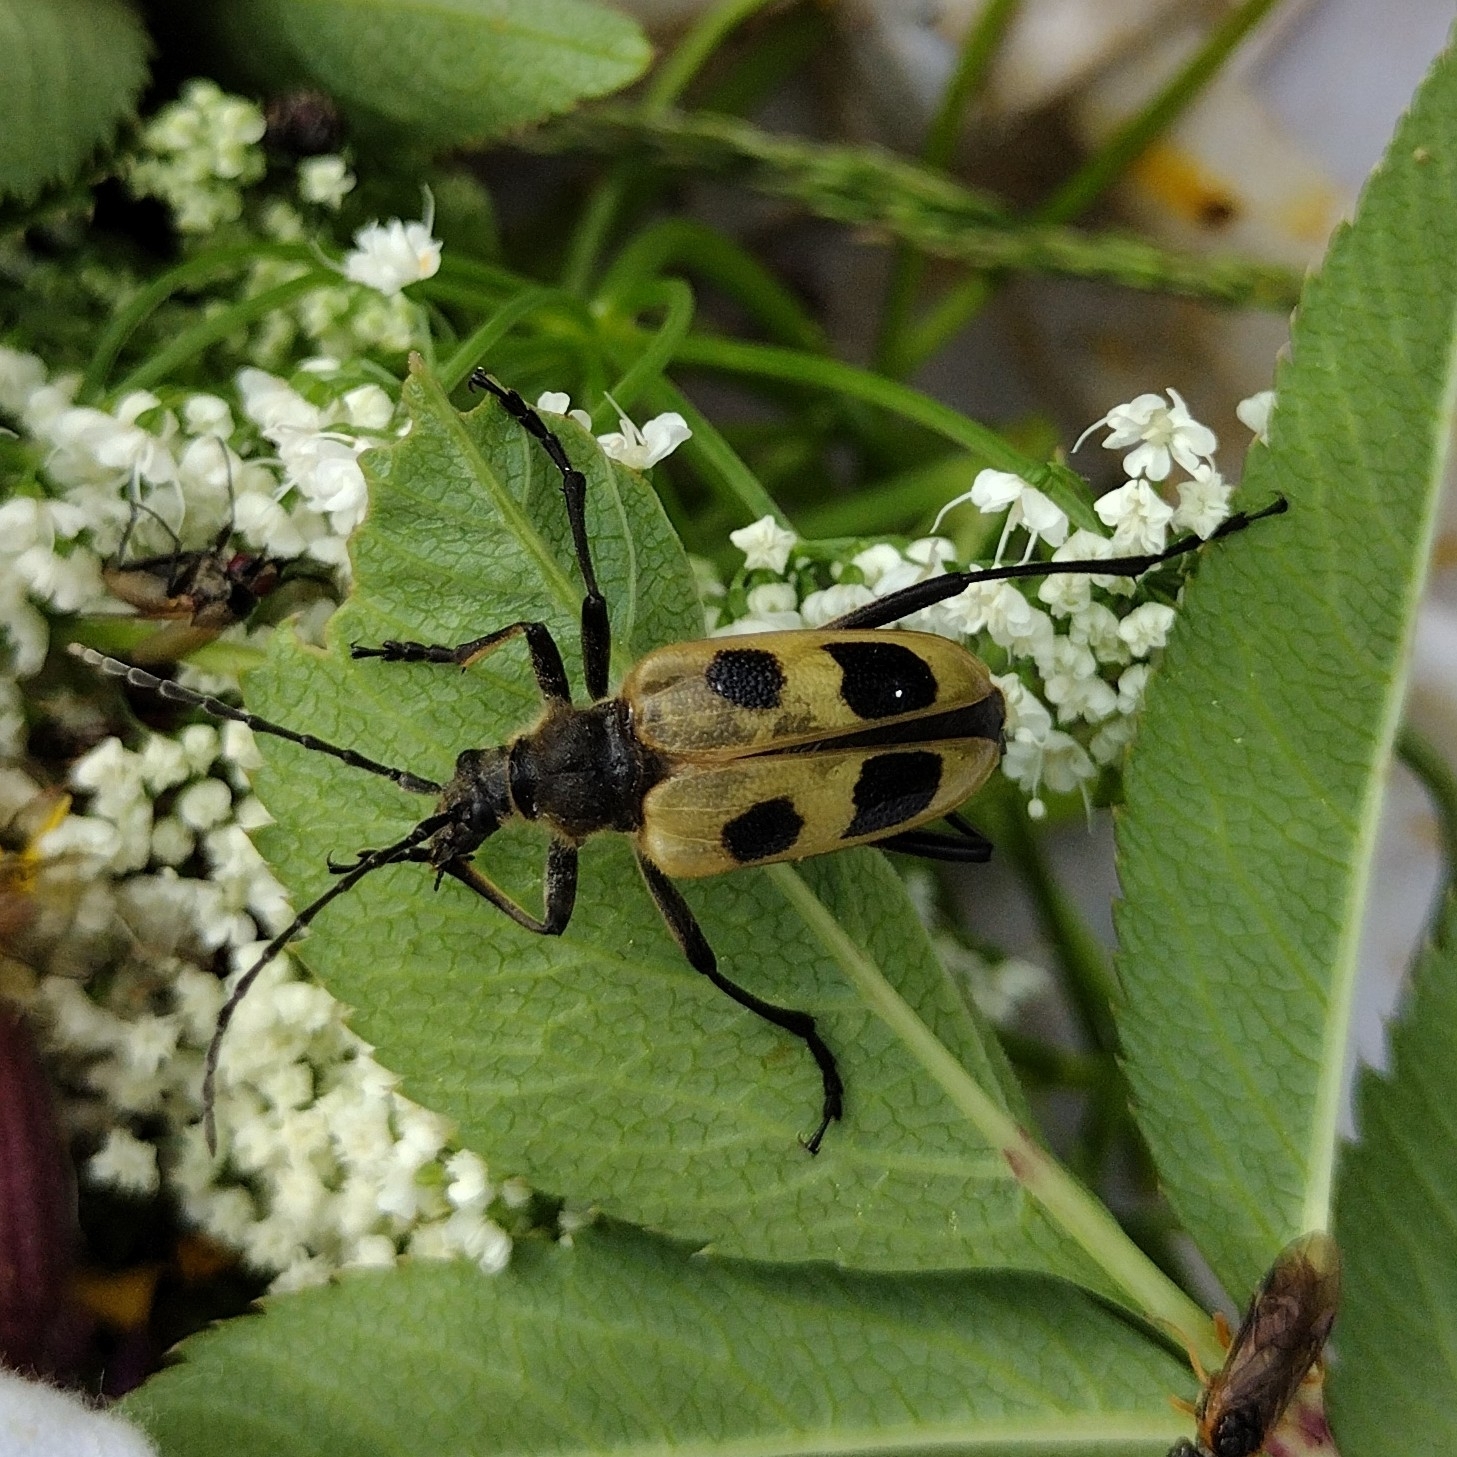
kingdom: Animalia
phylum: Arthropoda
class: Insecta
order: Coleoptera
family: Cerambycidae
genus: Pachyta
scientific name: Pachyta quadrimaculata
